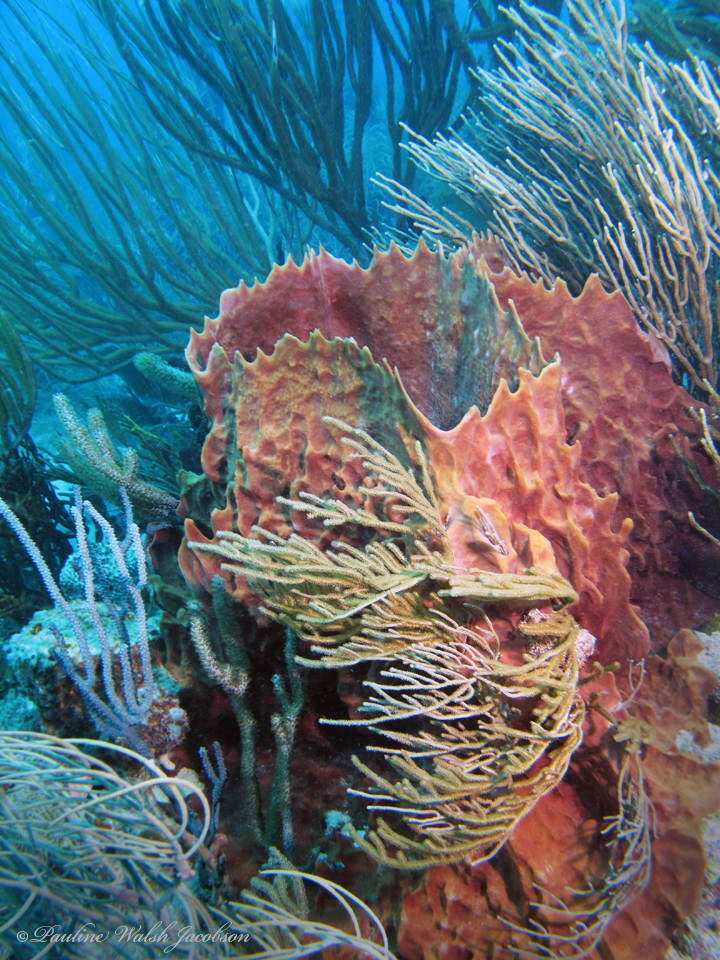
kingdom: Animalia
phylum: Porifera
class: Demospongiae
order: Haplosclerida
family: Petrosiidae
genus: Xestospongia
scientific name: Xestospongia muta
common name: Giant barrel sponge
